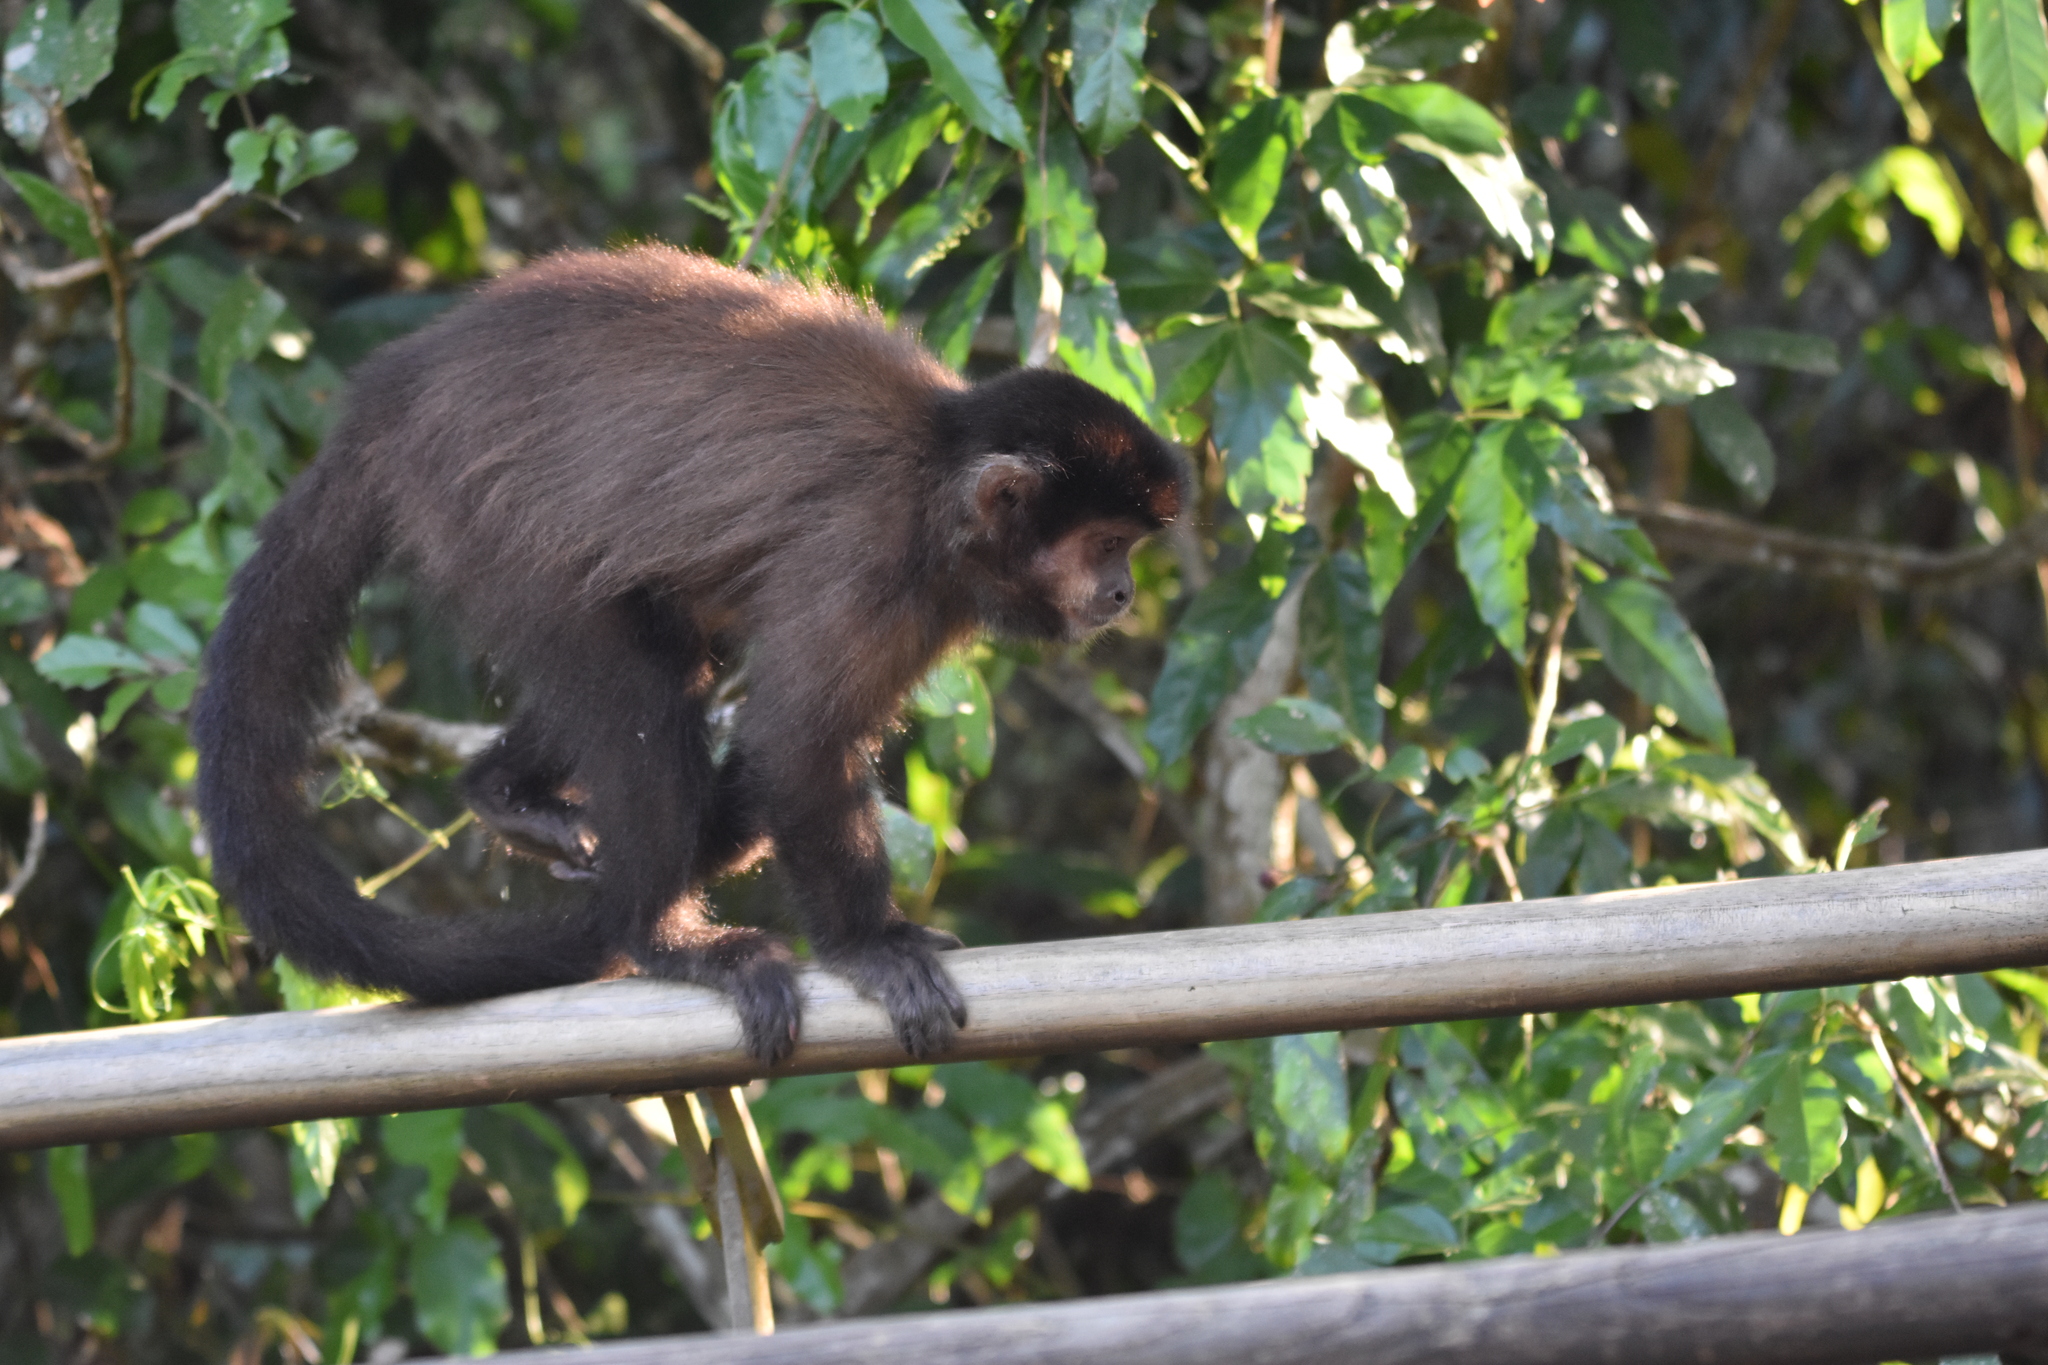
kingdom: Animalia
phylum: Chordata
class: Mammalia
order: Primates
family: Cebidae
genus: Sapajus
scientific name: Sapajus nigritus
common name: Black capuchin
